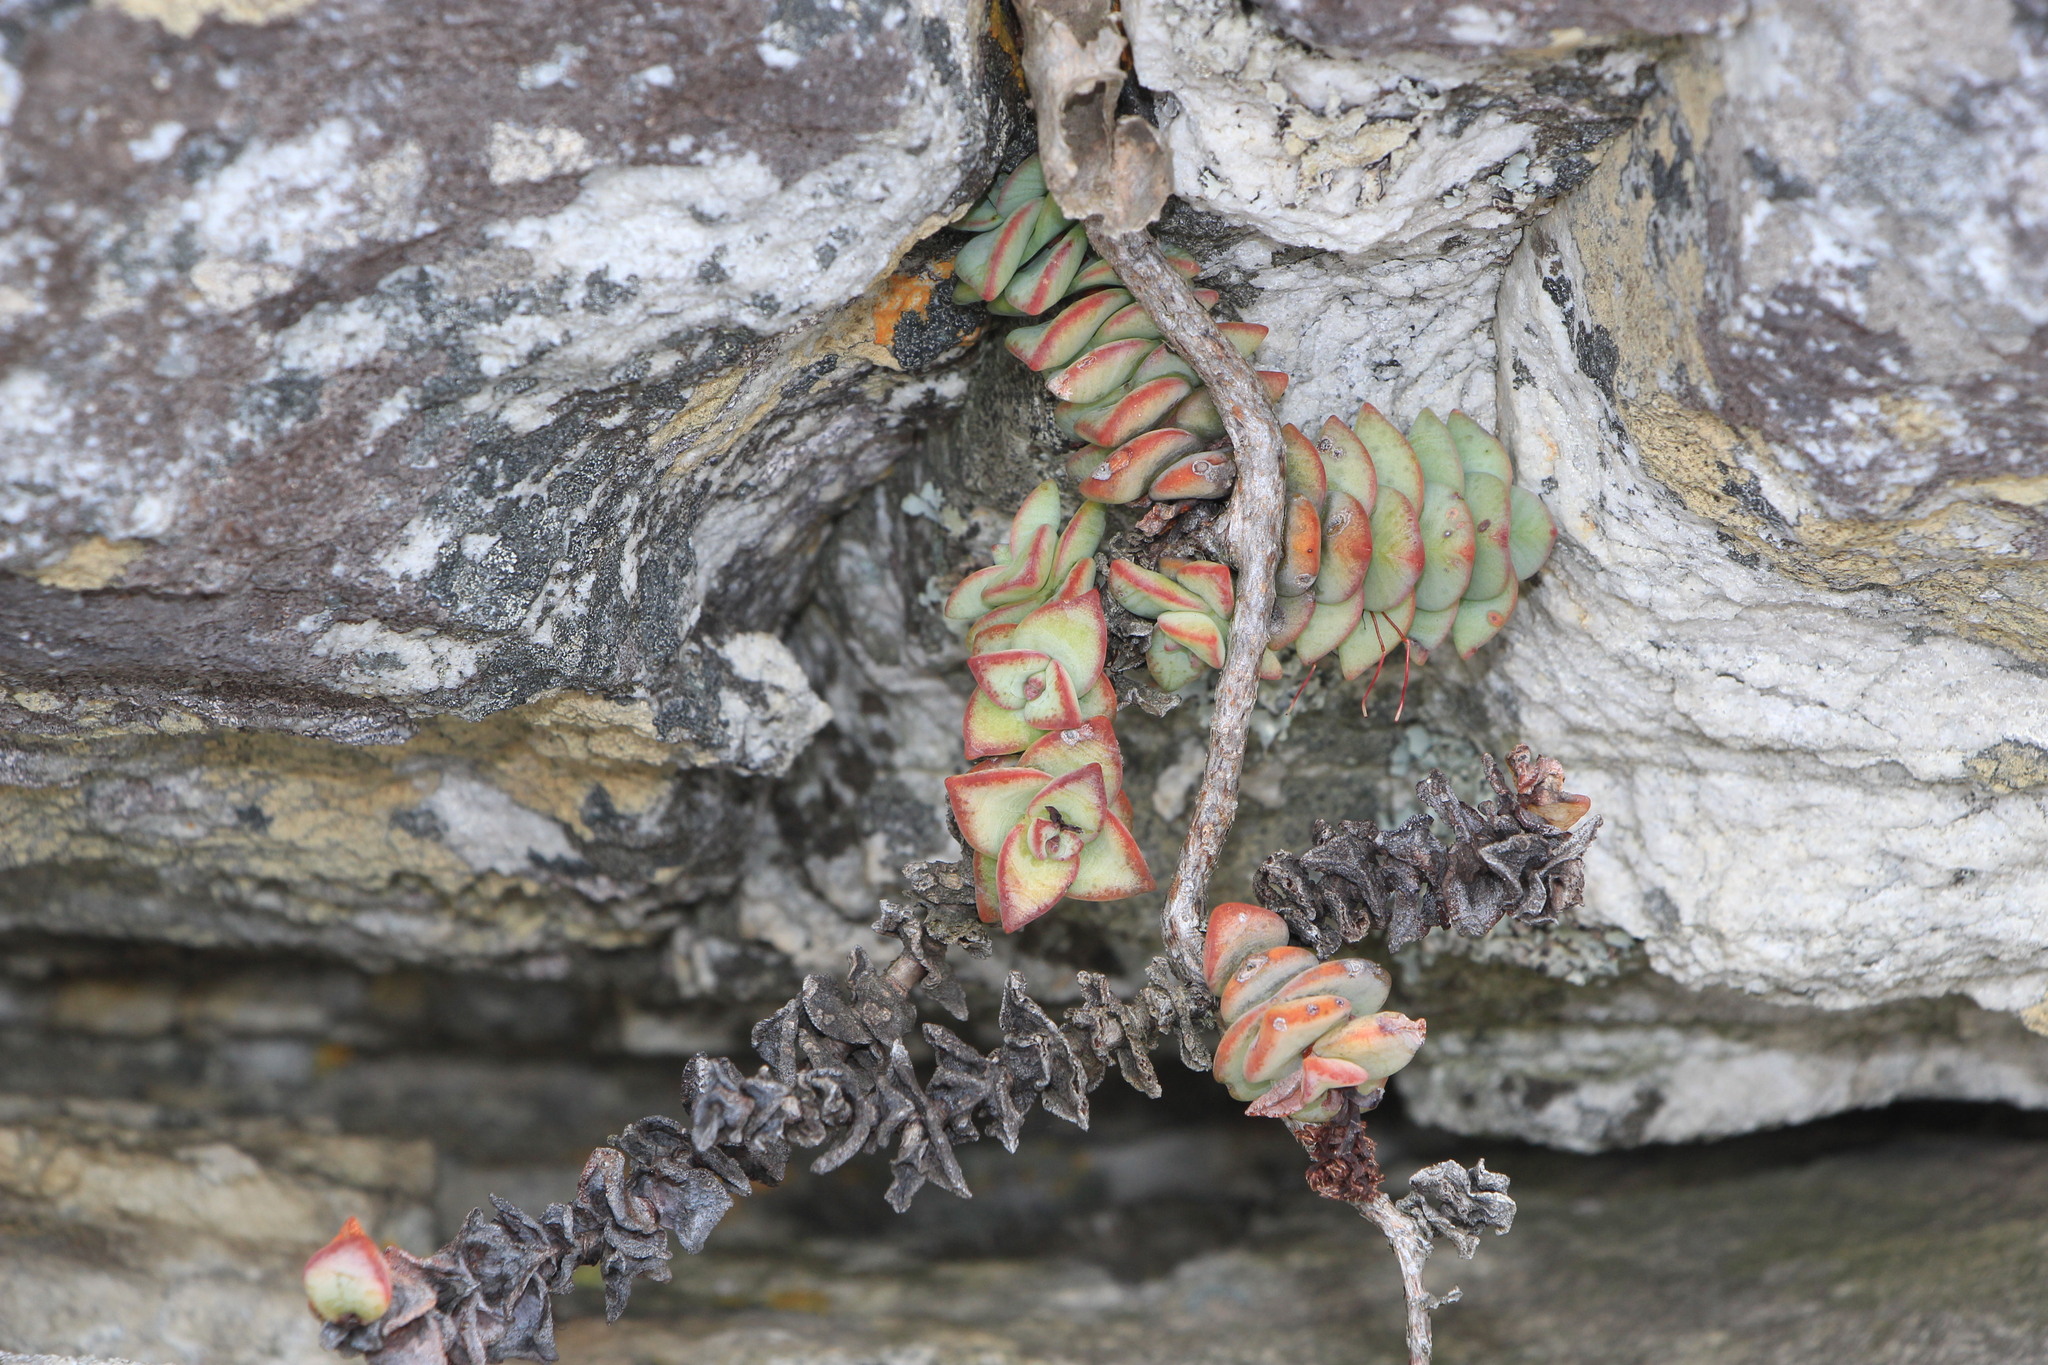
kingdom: Plantae
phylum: Tracheophyta
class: Magnoliopsida
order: Saxifragales
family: Crassulaceae
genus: Crassula
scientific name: Crassula rupestris
